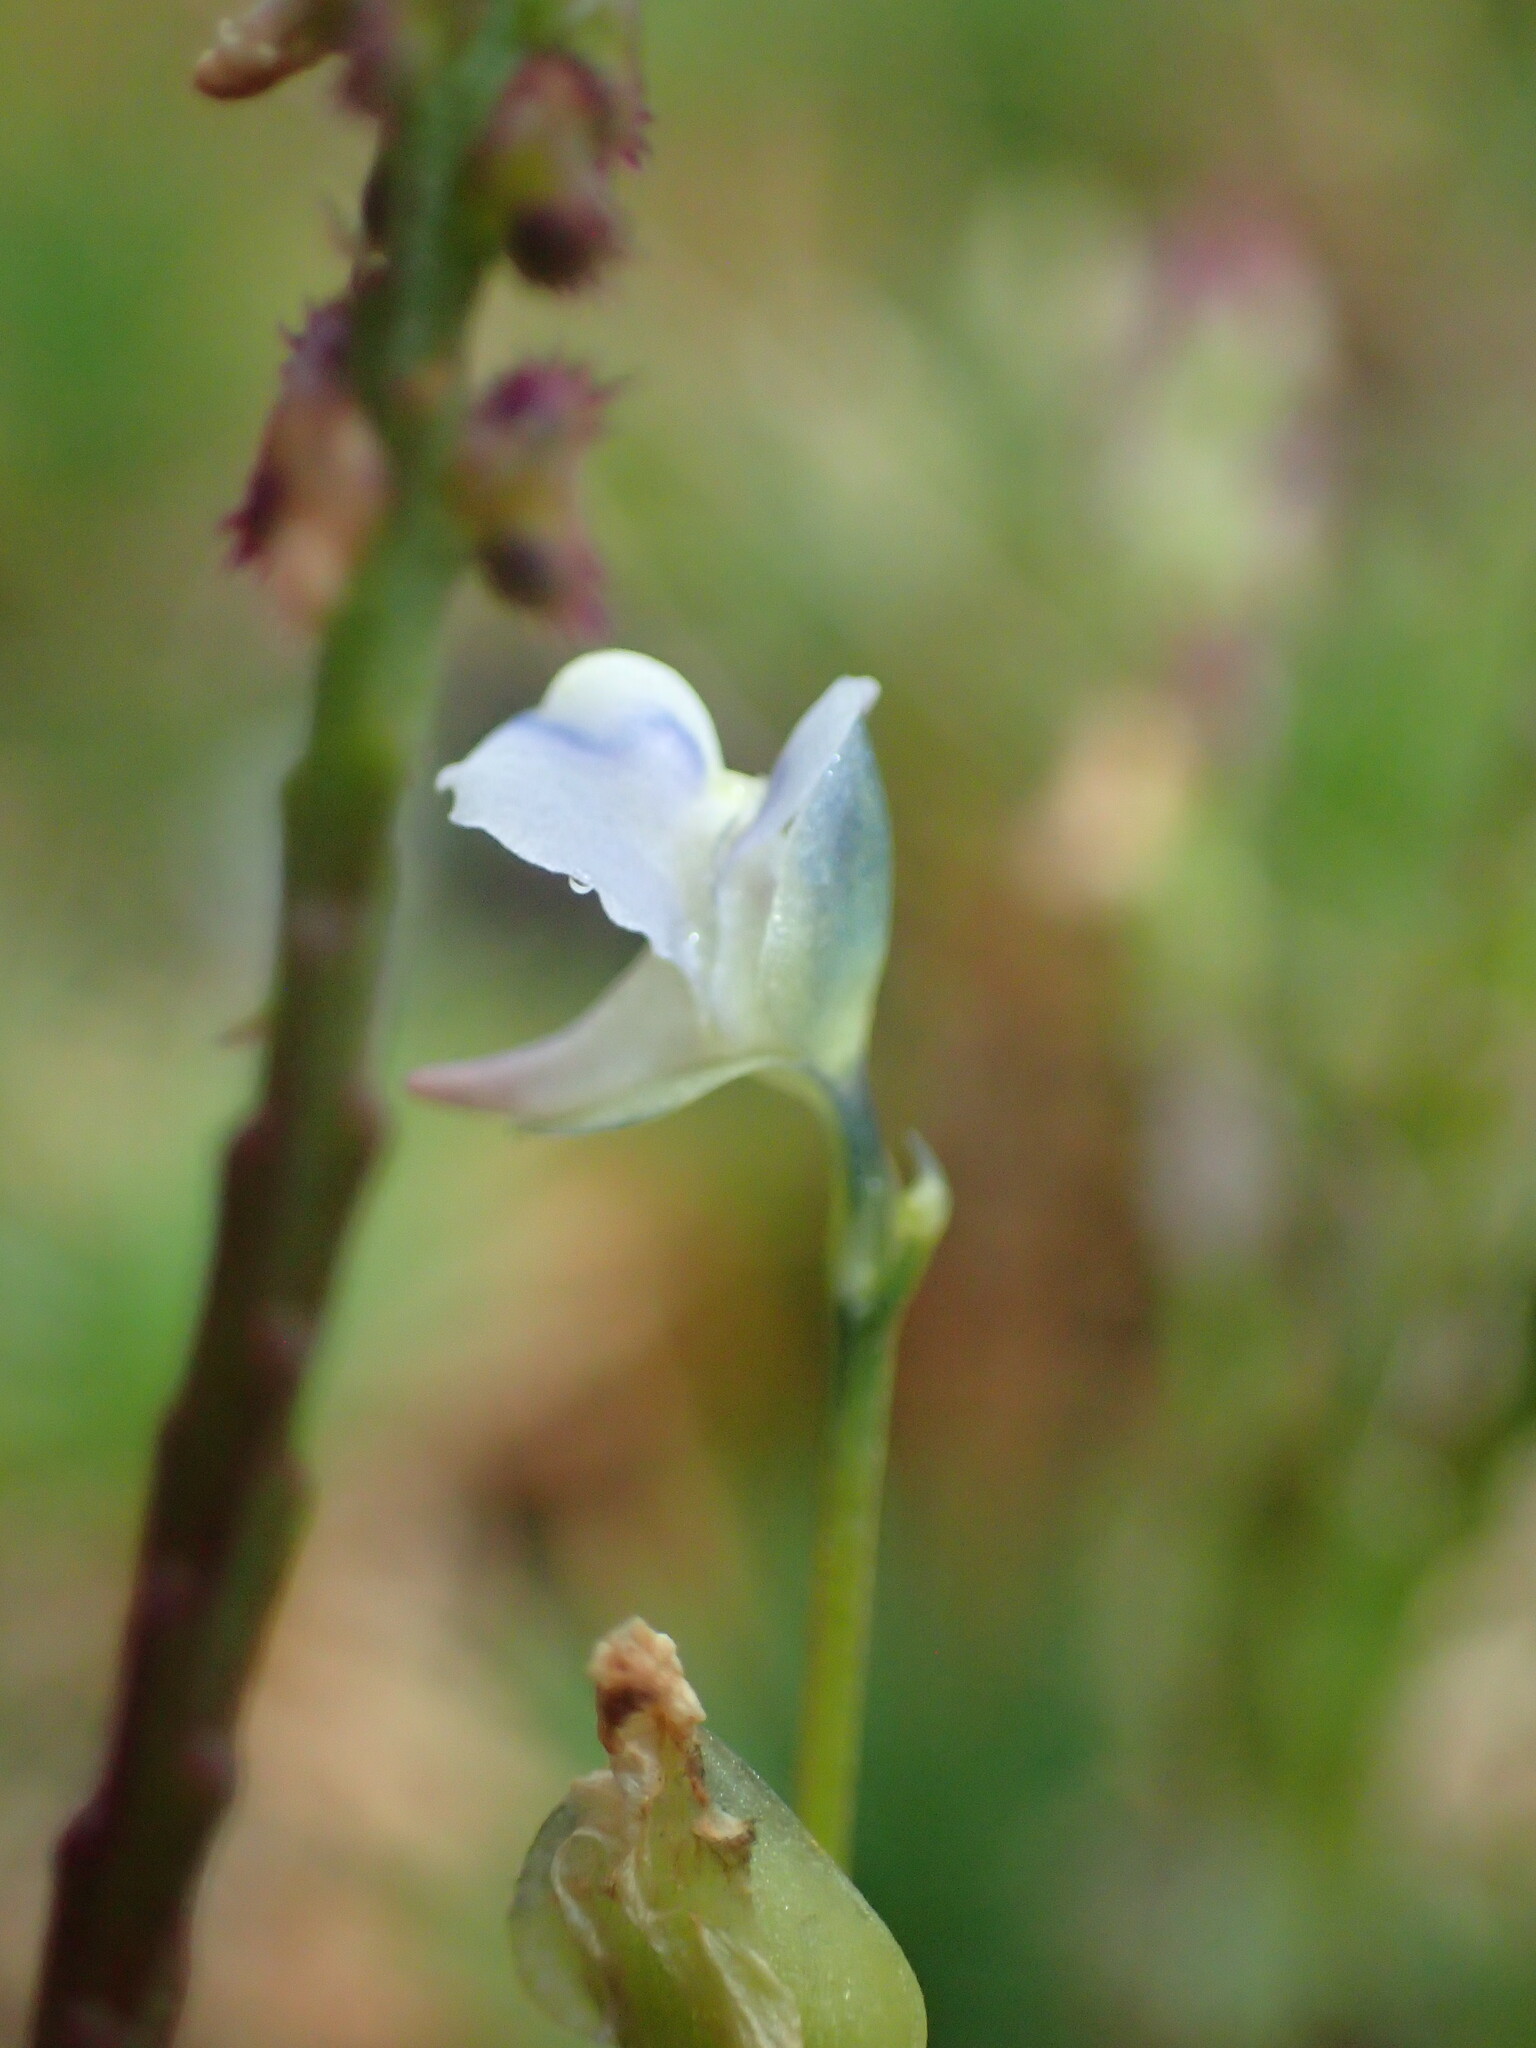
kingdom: Plantae
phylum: Tracheophyta
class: Magnoliopsida
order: Lamiales
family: Lentibulariaceae
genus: Utricularia
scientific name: Utricularia uliginosa
